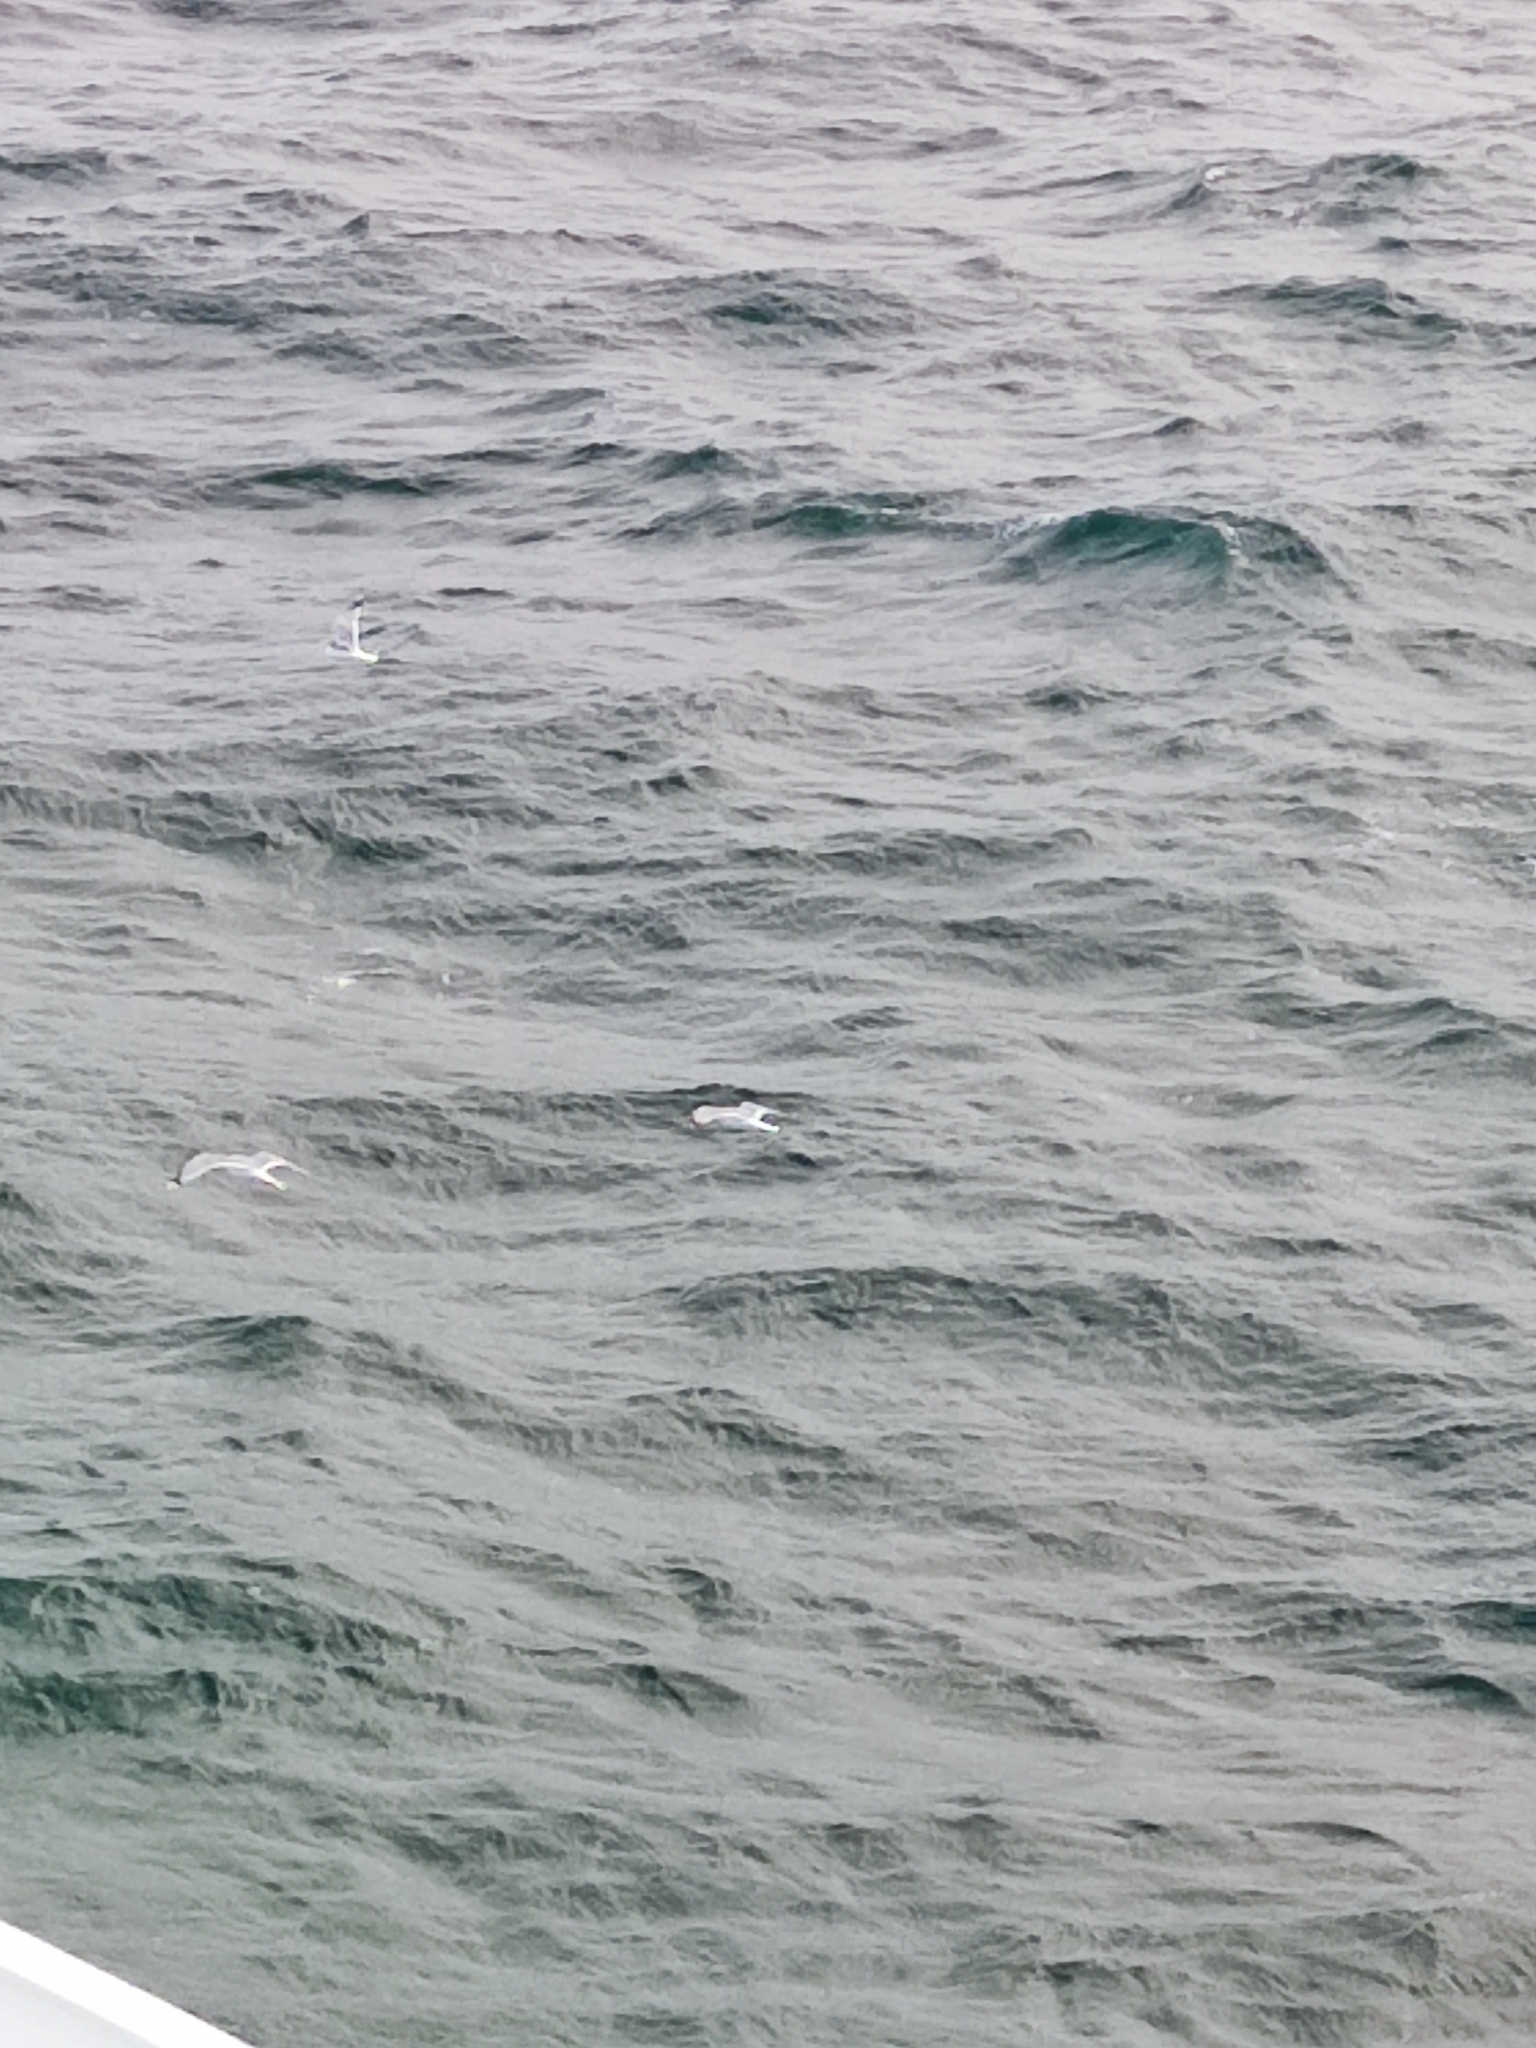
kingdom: Animalia
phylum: Chordata
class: Aves
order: Charadriiformes
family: Laridae
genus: Larus
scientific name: Larus canus
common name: Mew gull
